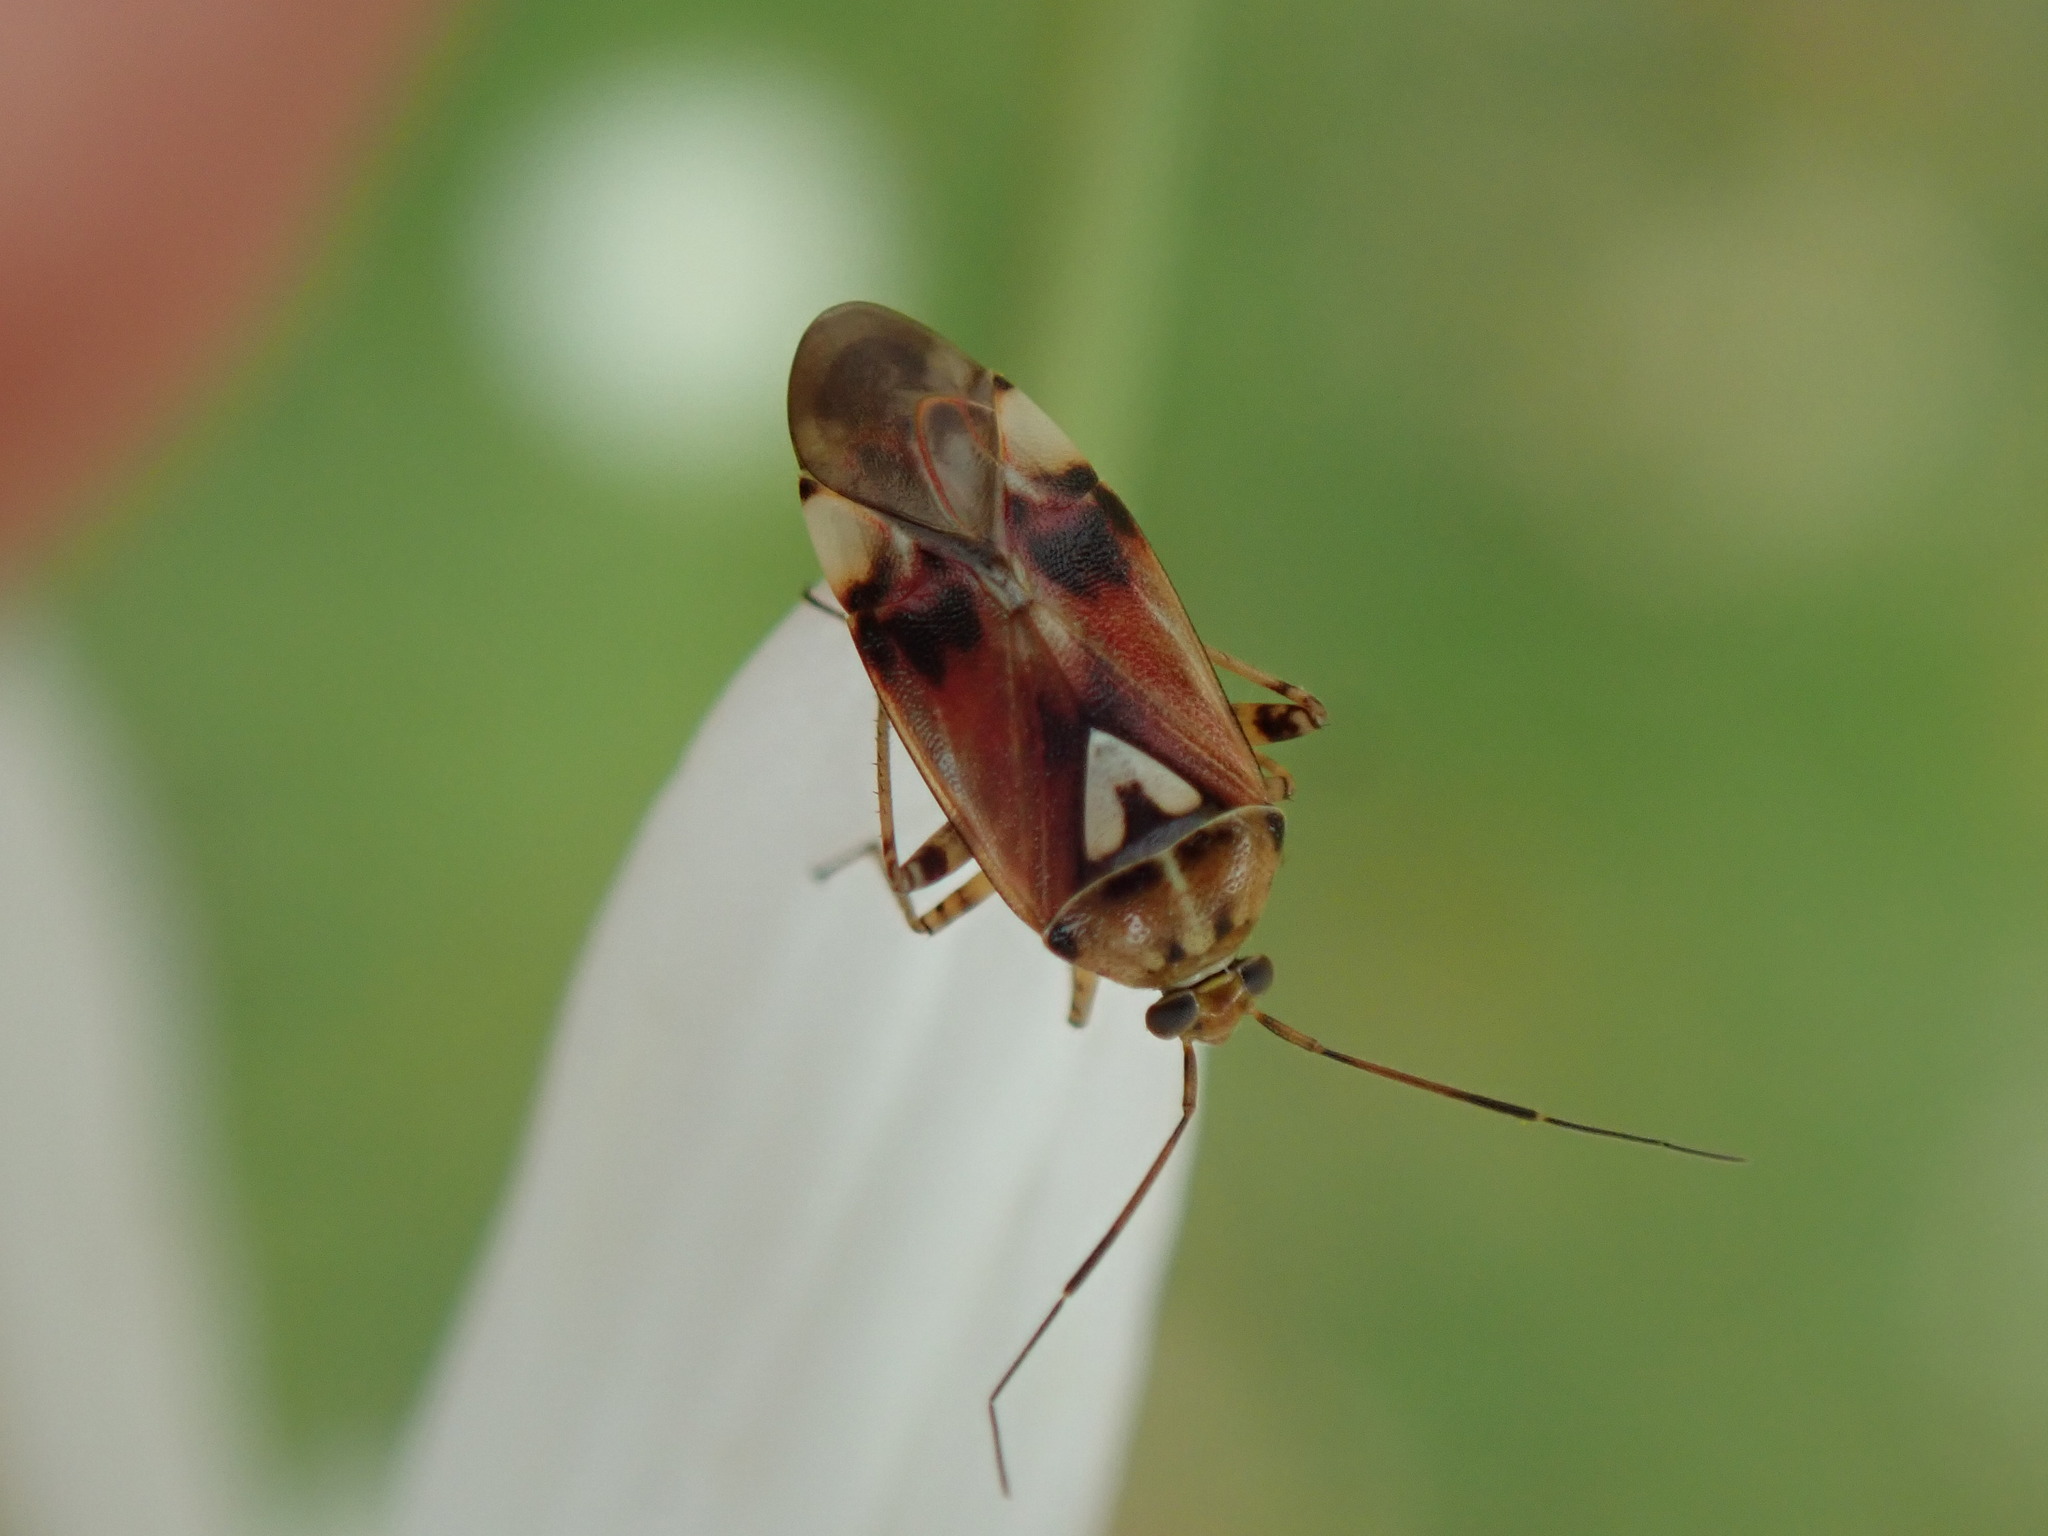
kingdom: Animalia
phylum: Arthropoda
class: Insecta
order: Hemiptera
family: Miridae
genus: Lygus
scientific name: Lygus pratensis
